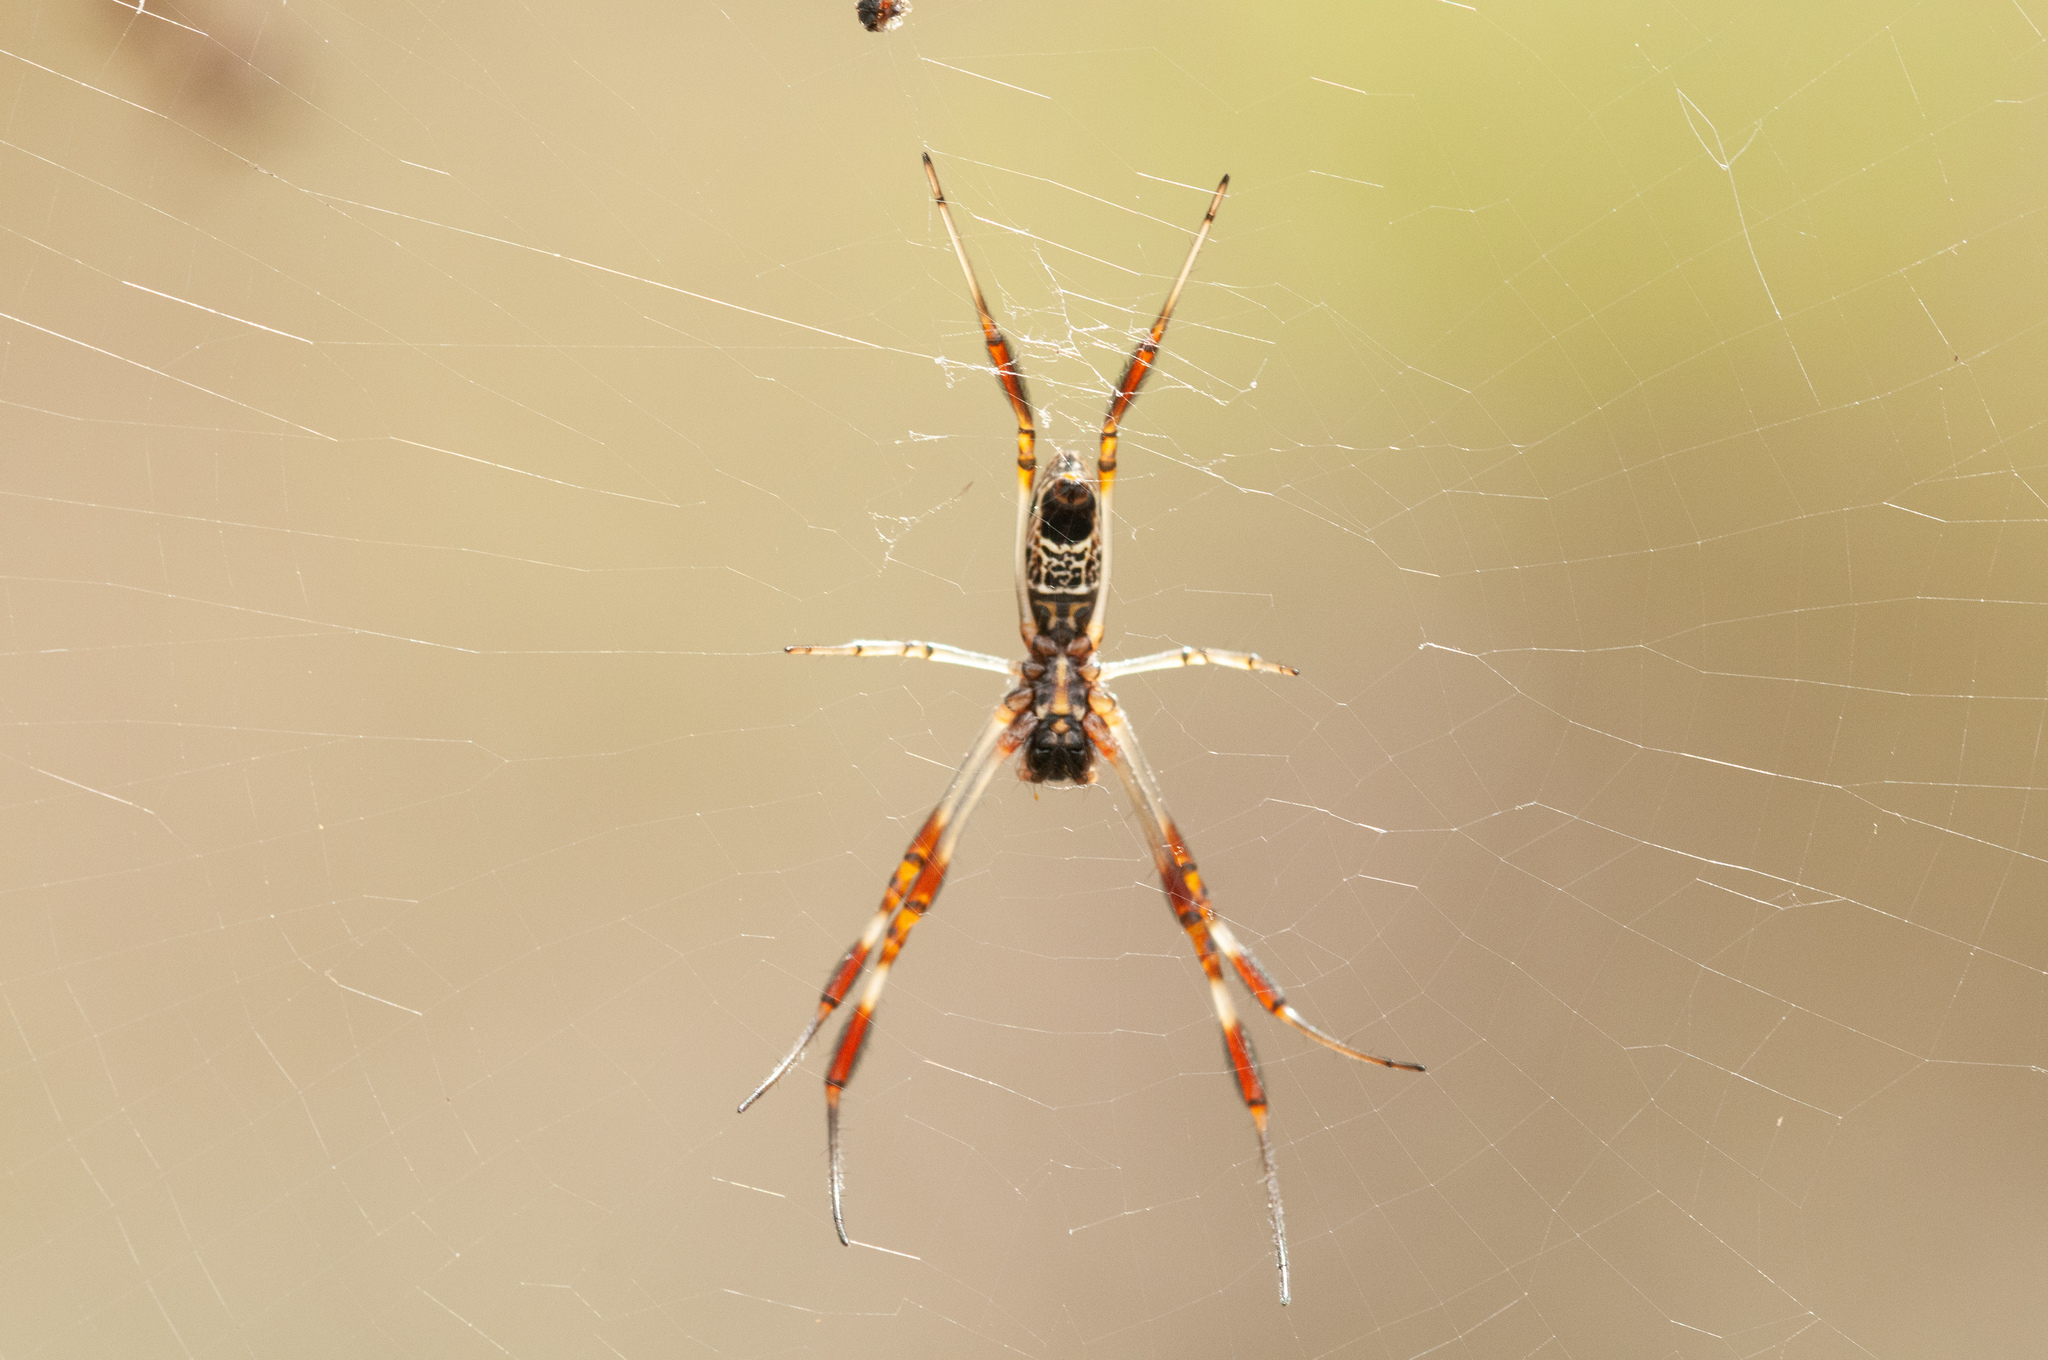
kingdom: Animalia
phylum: Arthropoda
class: Arachnida
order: Araneae
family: Araneidae
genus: Trichonephila
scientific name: Trichonephila edulis
